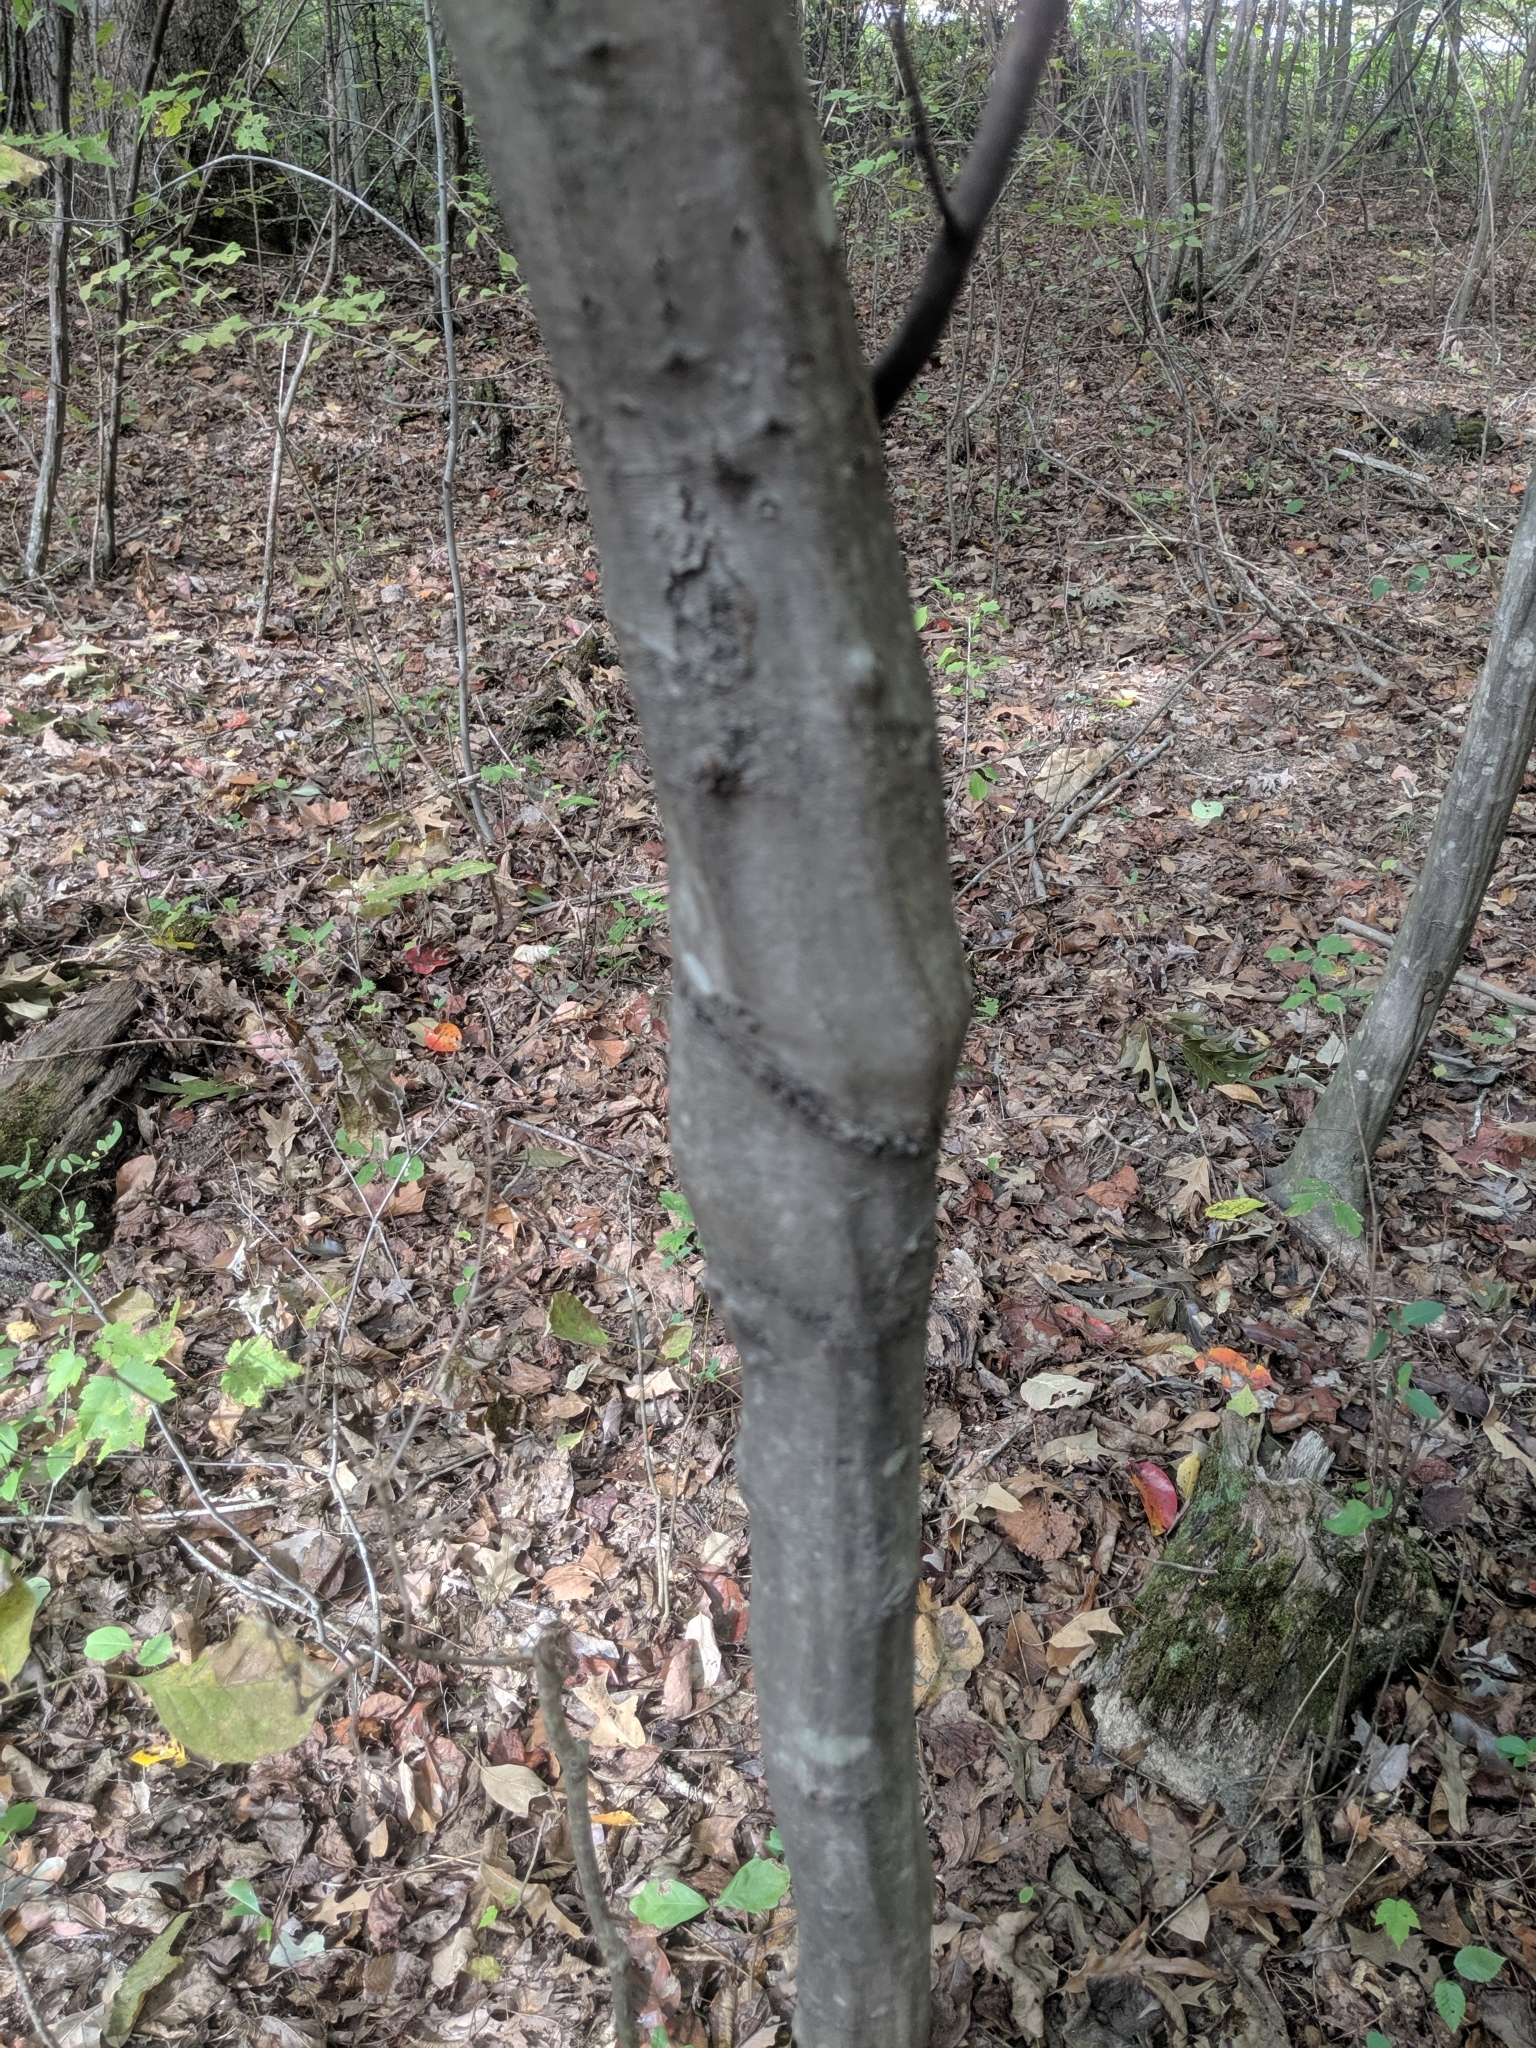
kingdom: Plantae
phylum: Tracheophyta
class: Magnoliopsida
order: Fagales
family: Betulaceae
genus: Carpinus
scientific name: Carpinus caroliniana
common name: American hornbeam
